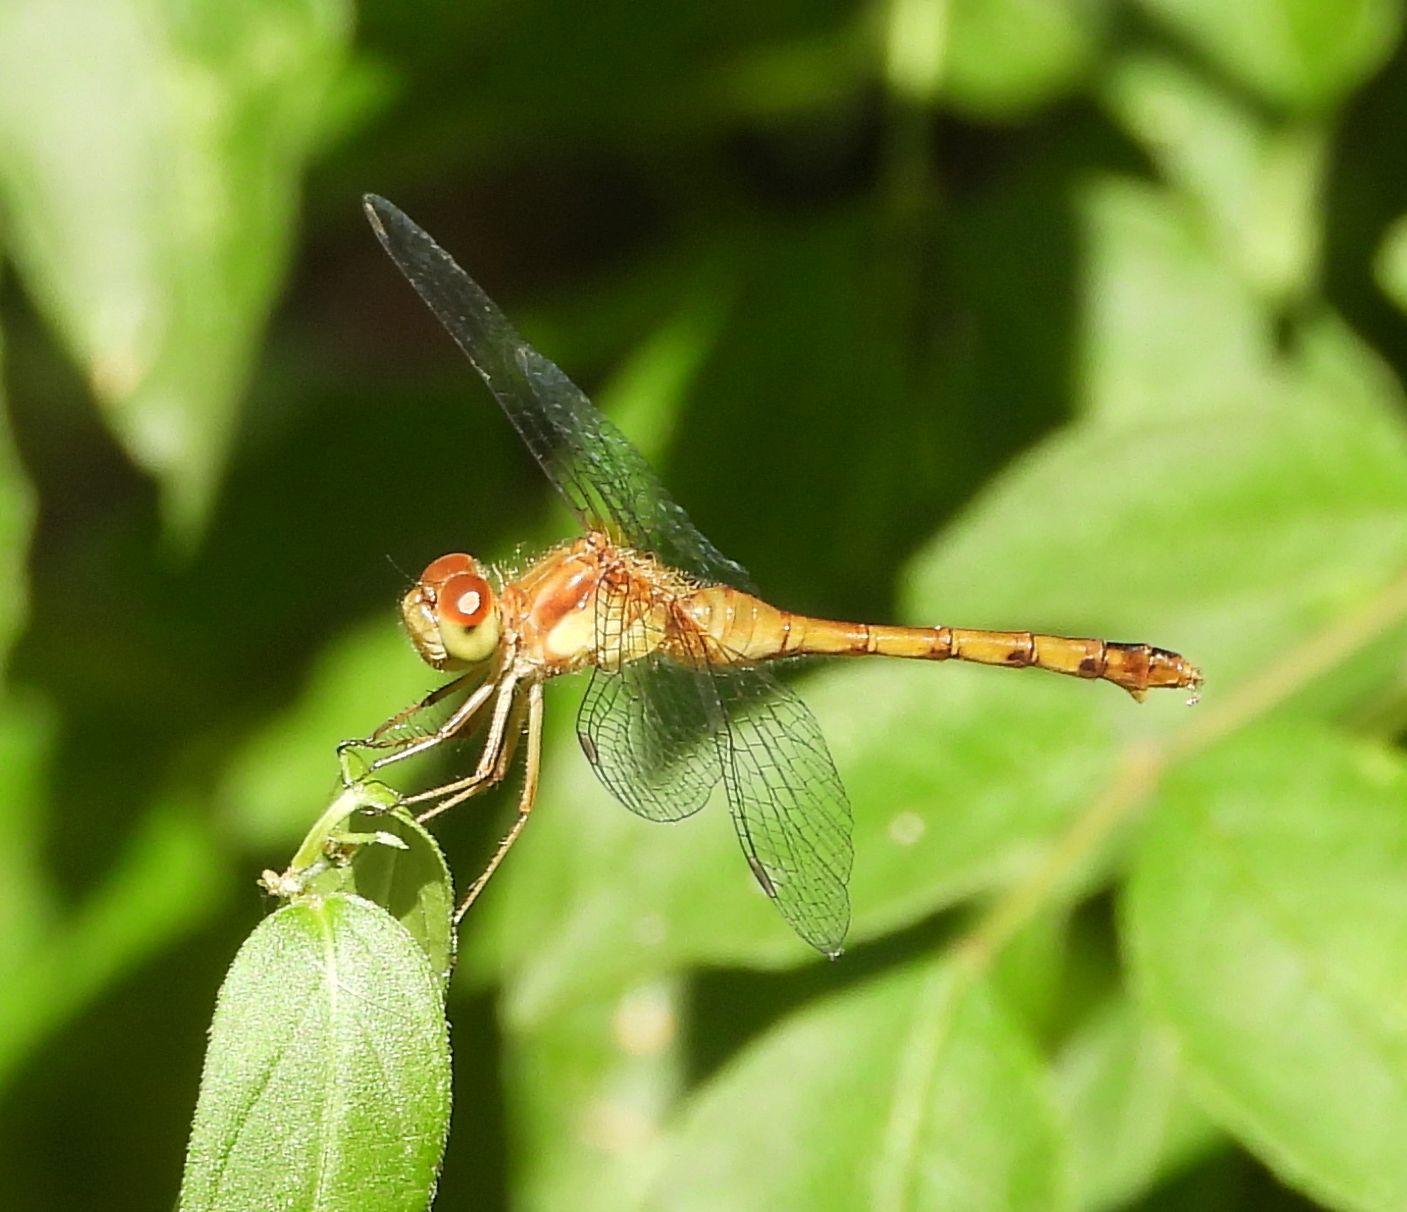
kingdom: Animalia
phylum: Arthropoda
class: Insecta
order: Odonata
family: Libellulidae
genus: Sympetrum
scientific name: Sympetrum vicinum
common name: Autumn meadowhawk
